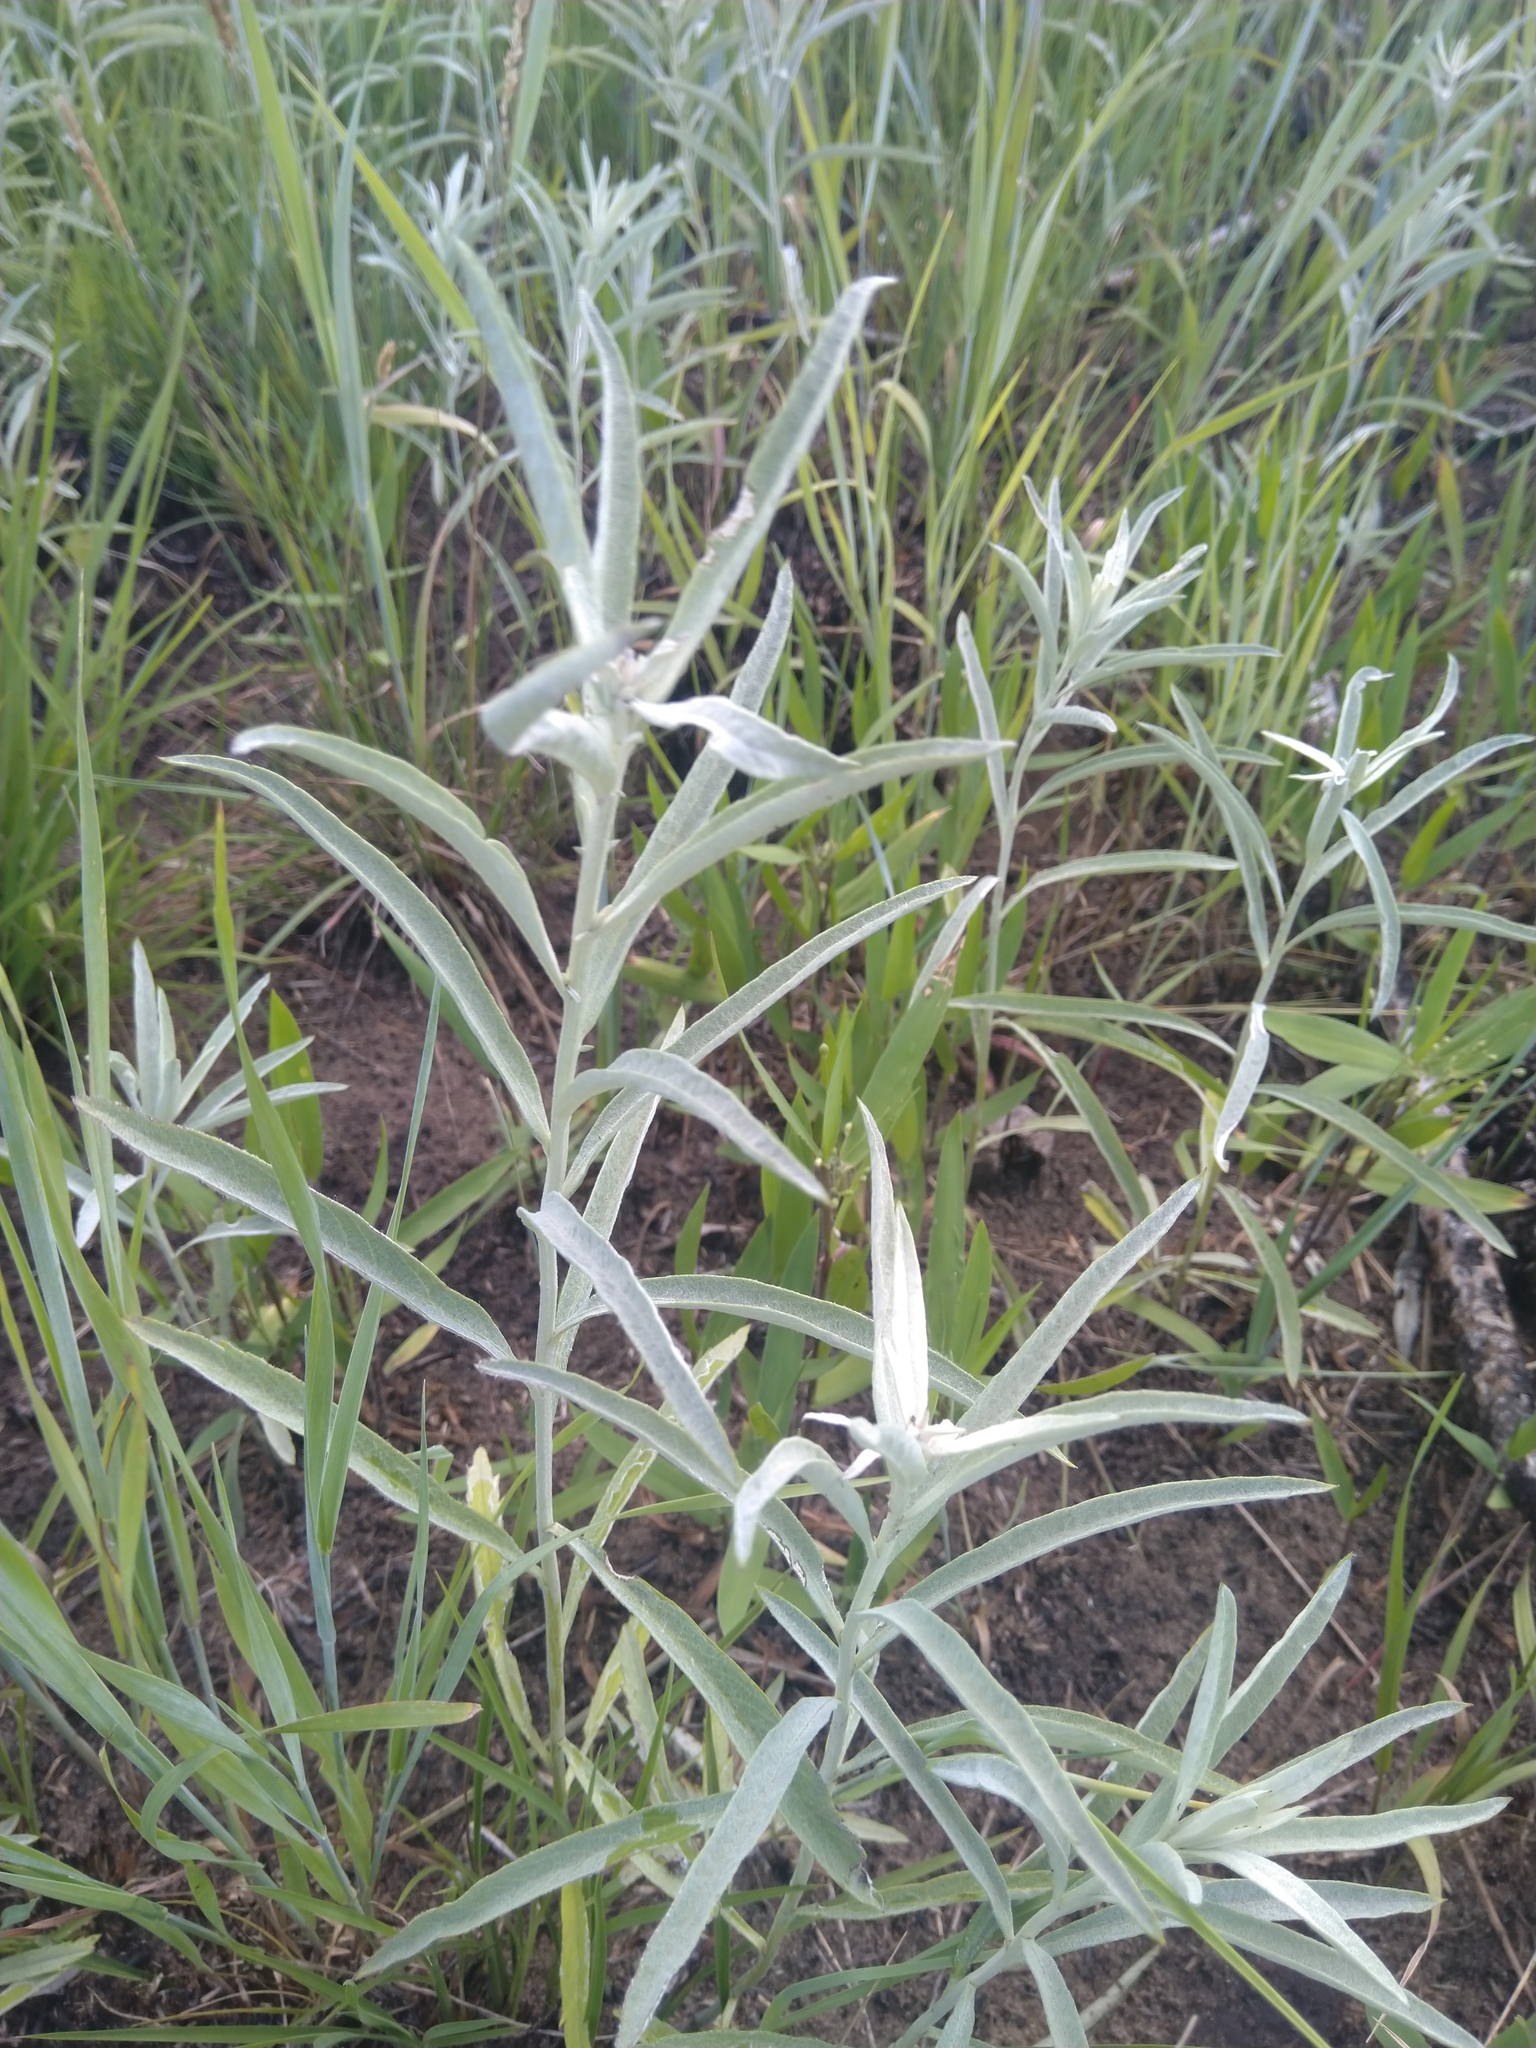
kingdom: Plantae
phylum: Tracheophyta
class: Magnoliopsida
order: Asterales
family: Asteraceae
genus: Artemisia
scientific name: Artemisia ludoviciana
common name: Western mugwort
